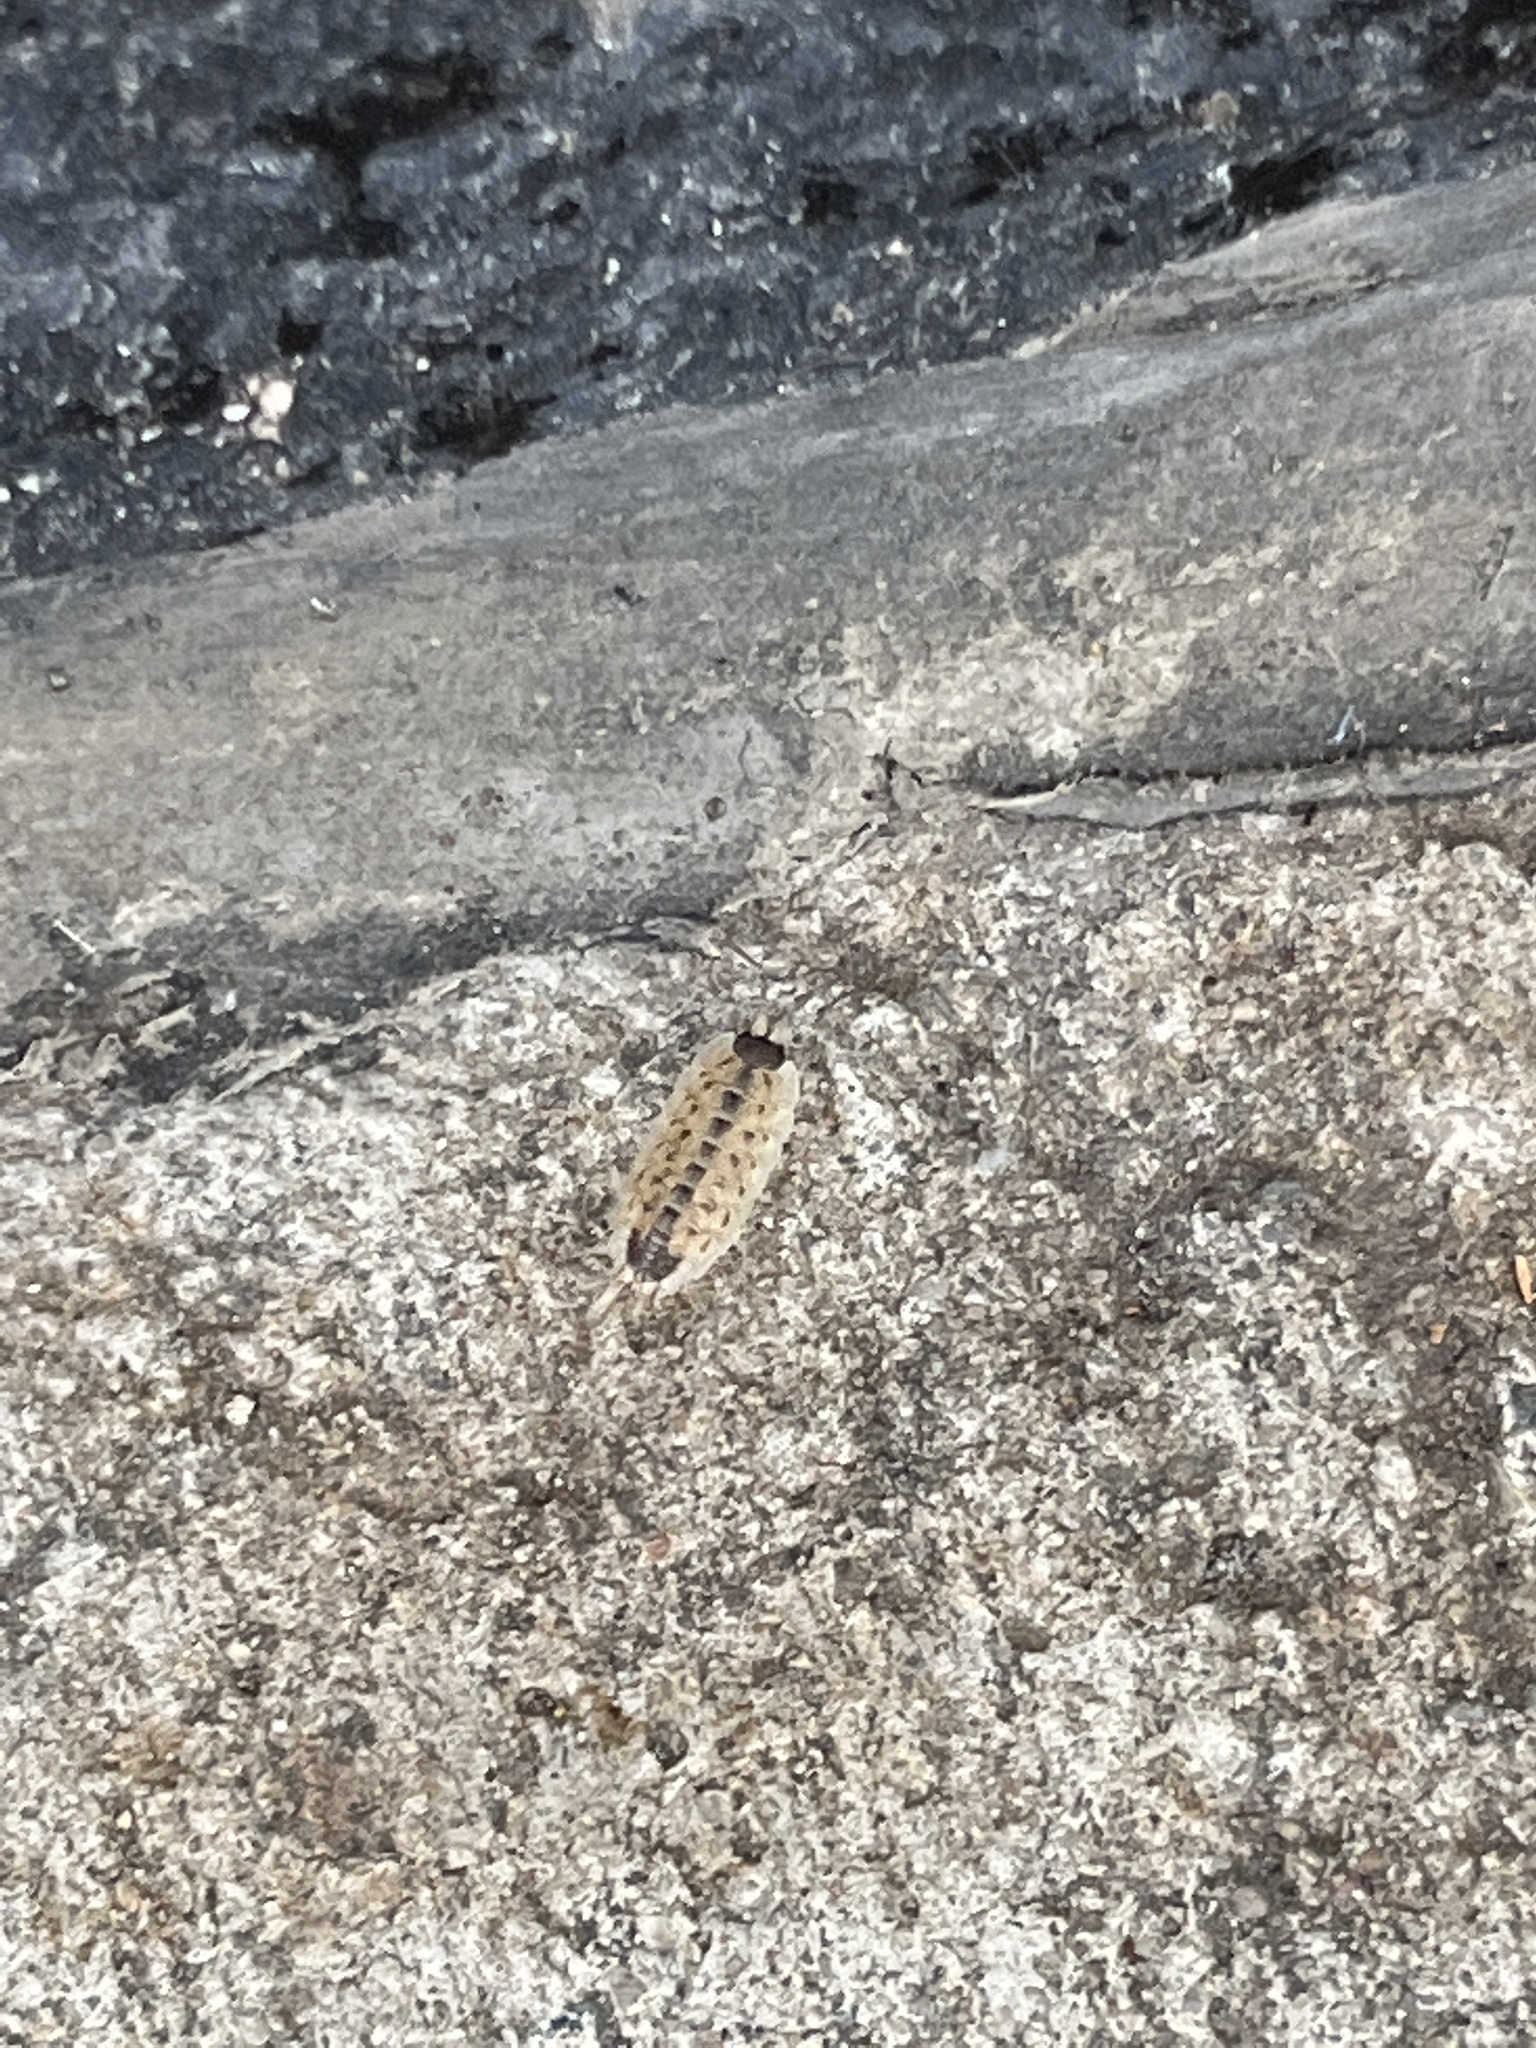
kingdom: Animalia
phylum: Arthropoda
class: Malacostraca
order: Isopoda
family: Porcellionidae
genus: Porcellio
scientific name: Porcellio spinicornis
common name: Painted woodlouse
